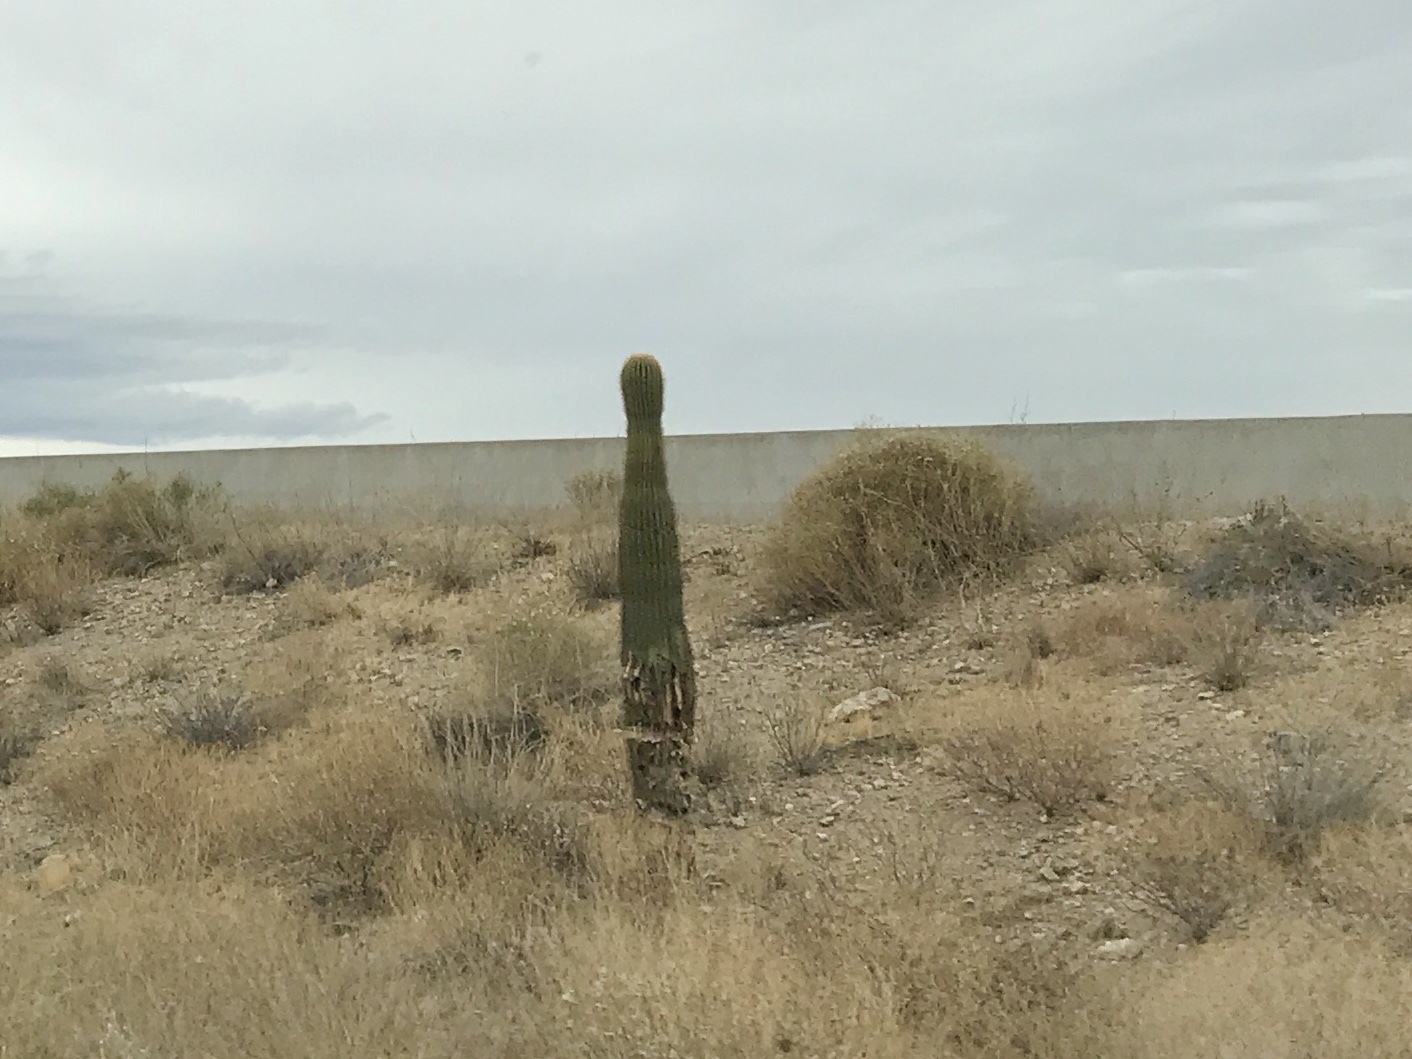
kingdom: Plantae
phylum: Tracheophyta
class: Magnoliopsida
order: Caryophyllales
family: Cactaceae
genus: Carnegiea
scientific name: Carnegiea gigantea
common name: Saguaro
